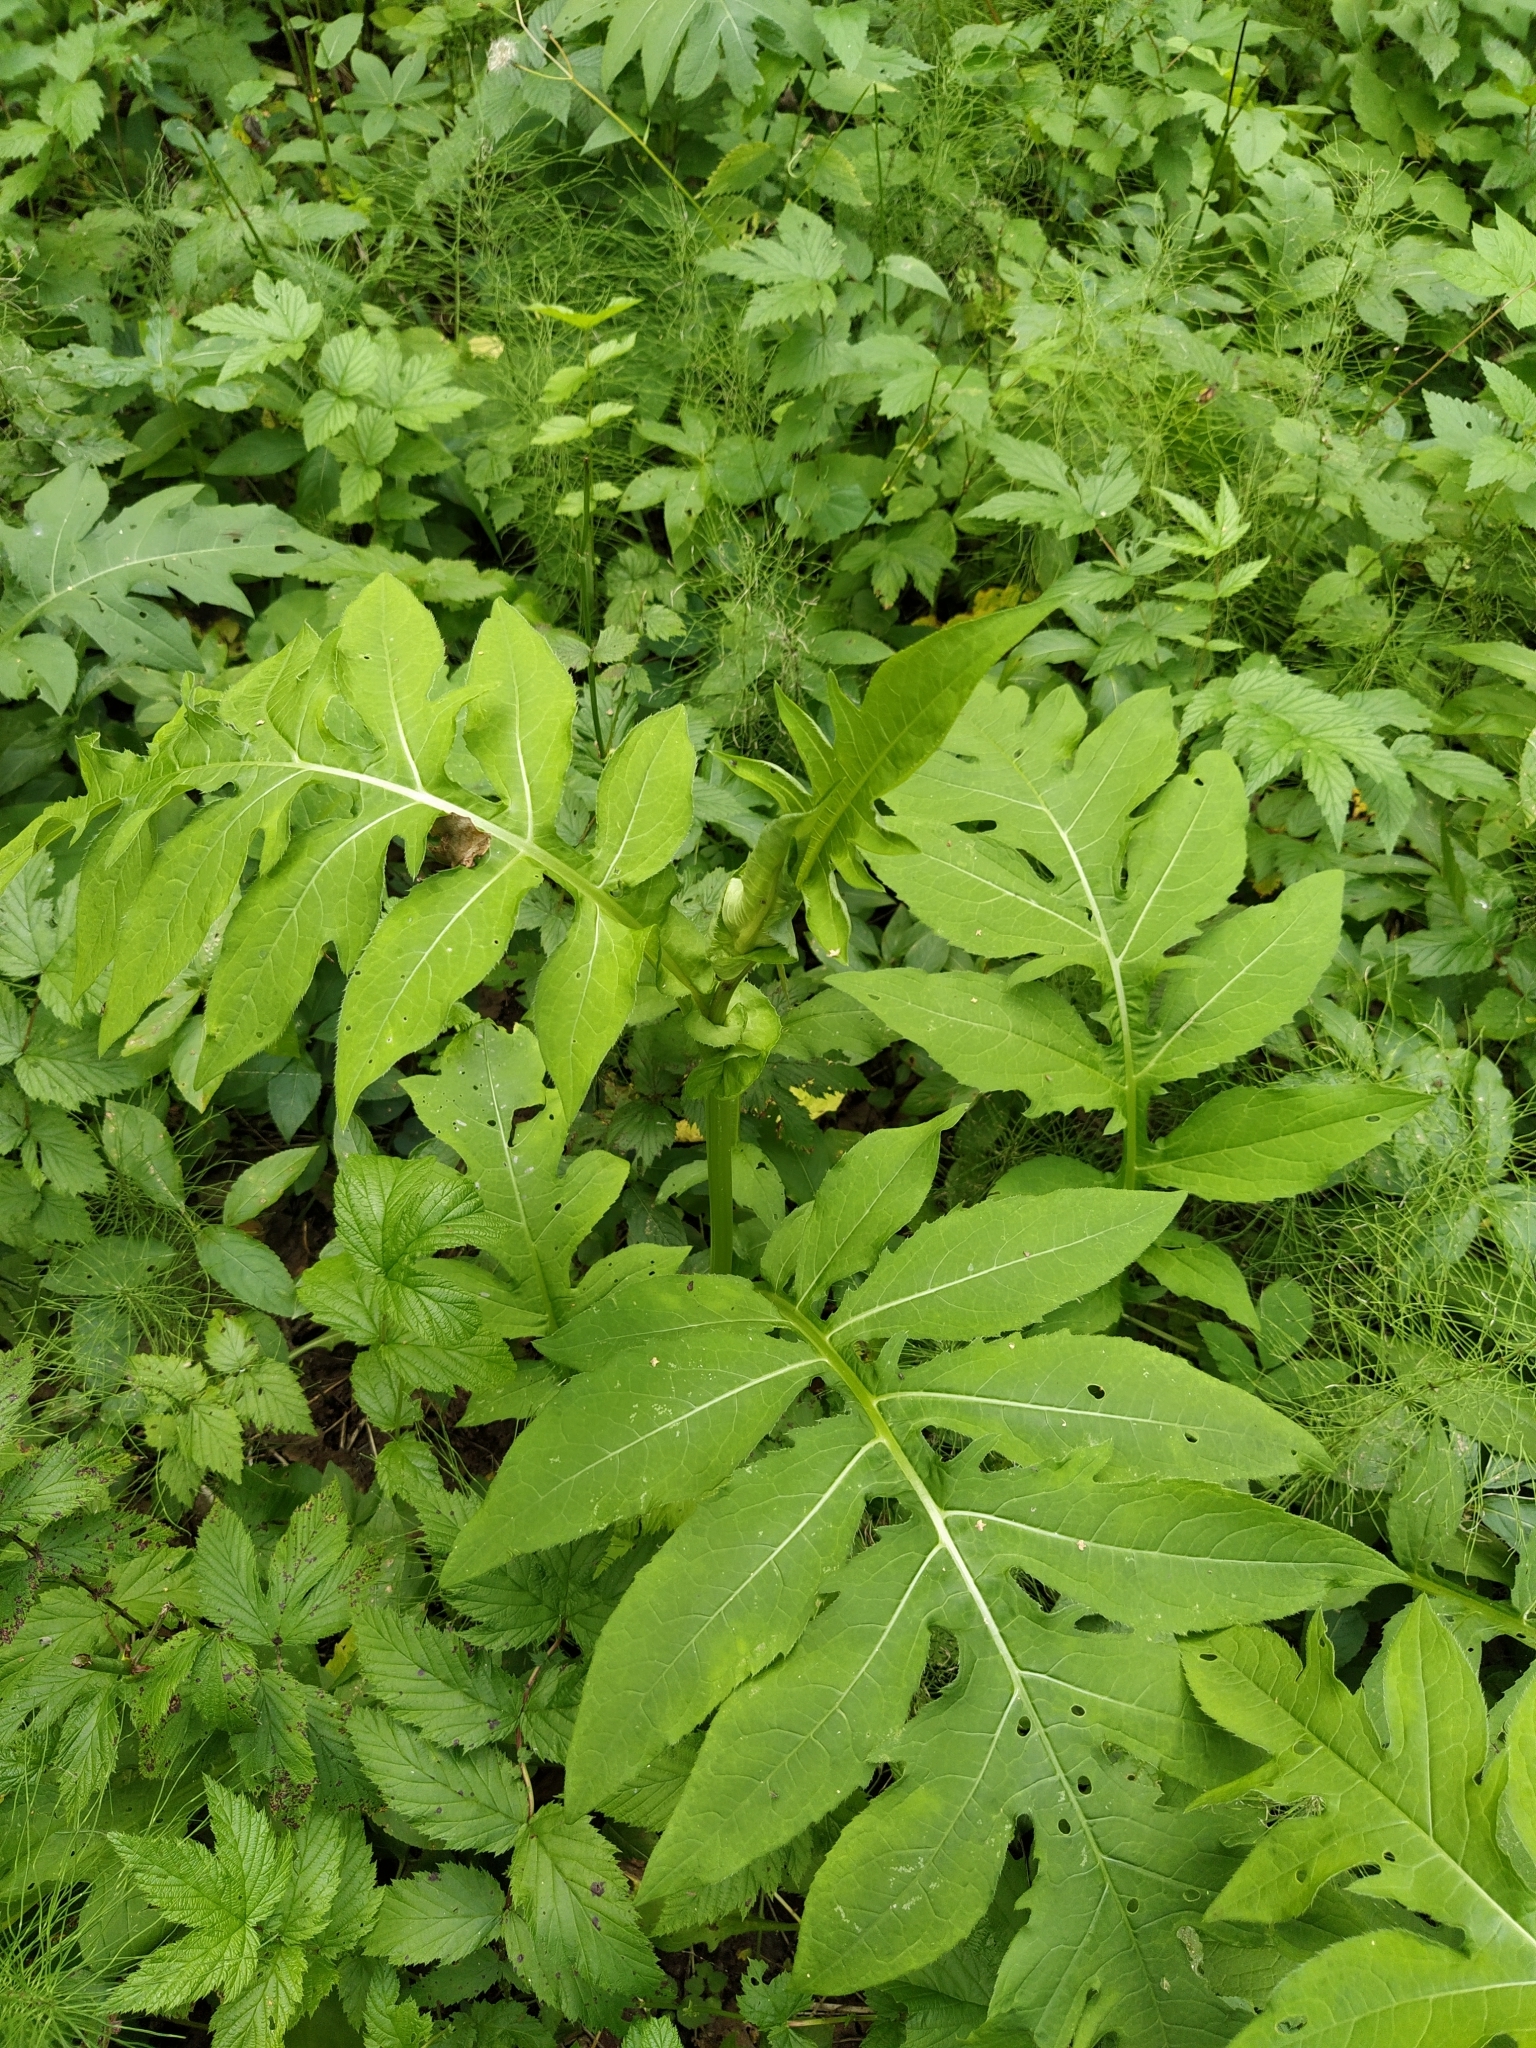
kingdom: Plantae
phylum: Tracheophyta
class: Magnoliopsida
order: Asterales
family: Asteraceae
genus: Cirsium
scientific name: Cirsium oleraceum
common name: Cabbage thistle
